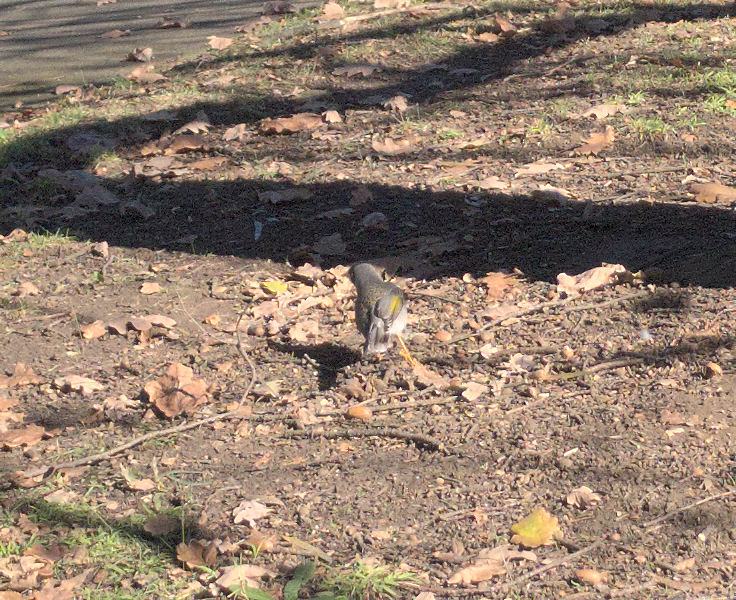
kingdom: Animalia
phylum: Chordata
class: Aves
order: Passeriformes
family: Meliphagidae
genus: Manorina
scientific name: Manorina melanocephala
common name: Noisy miner
